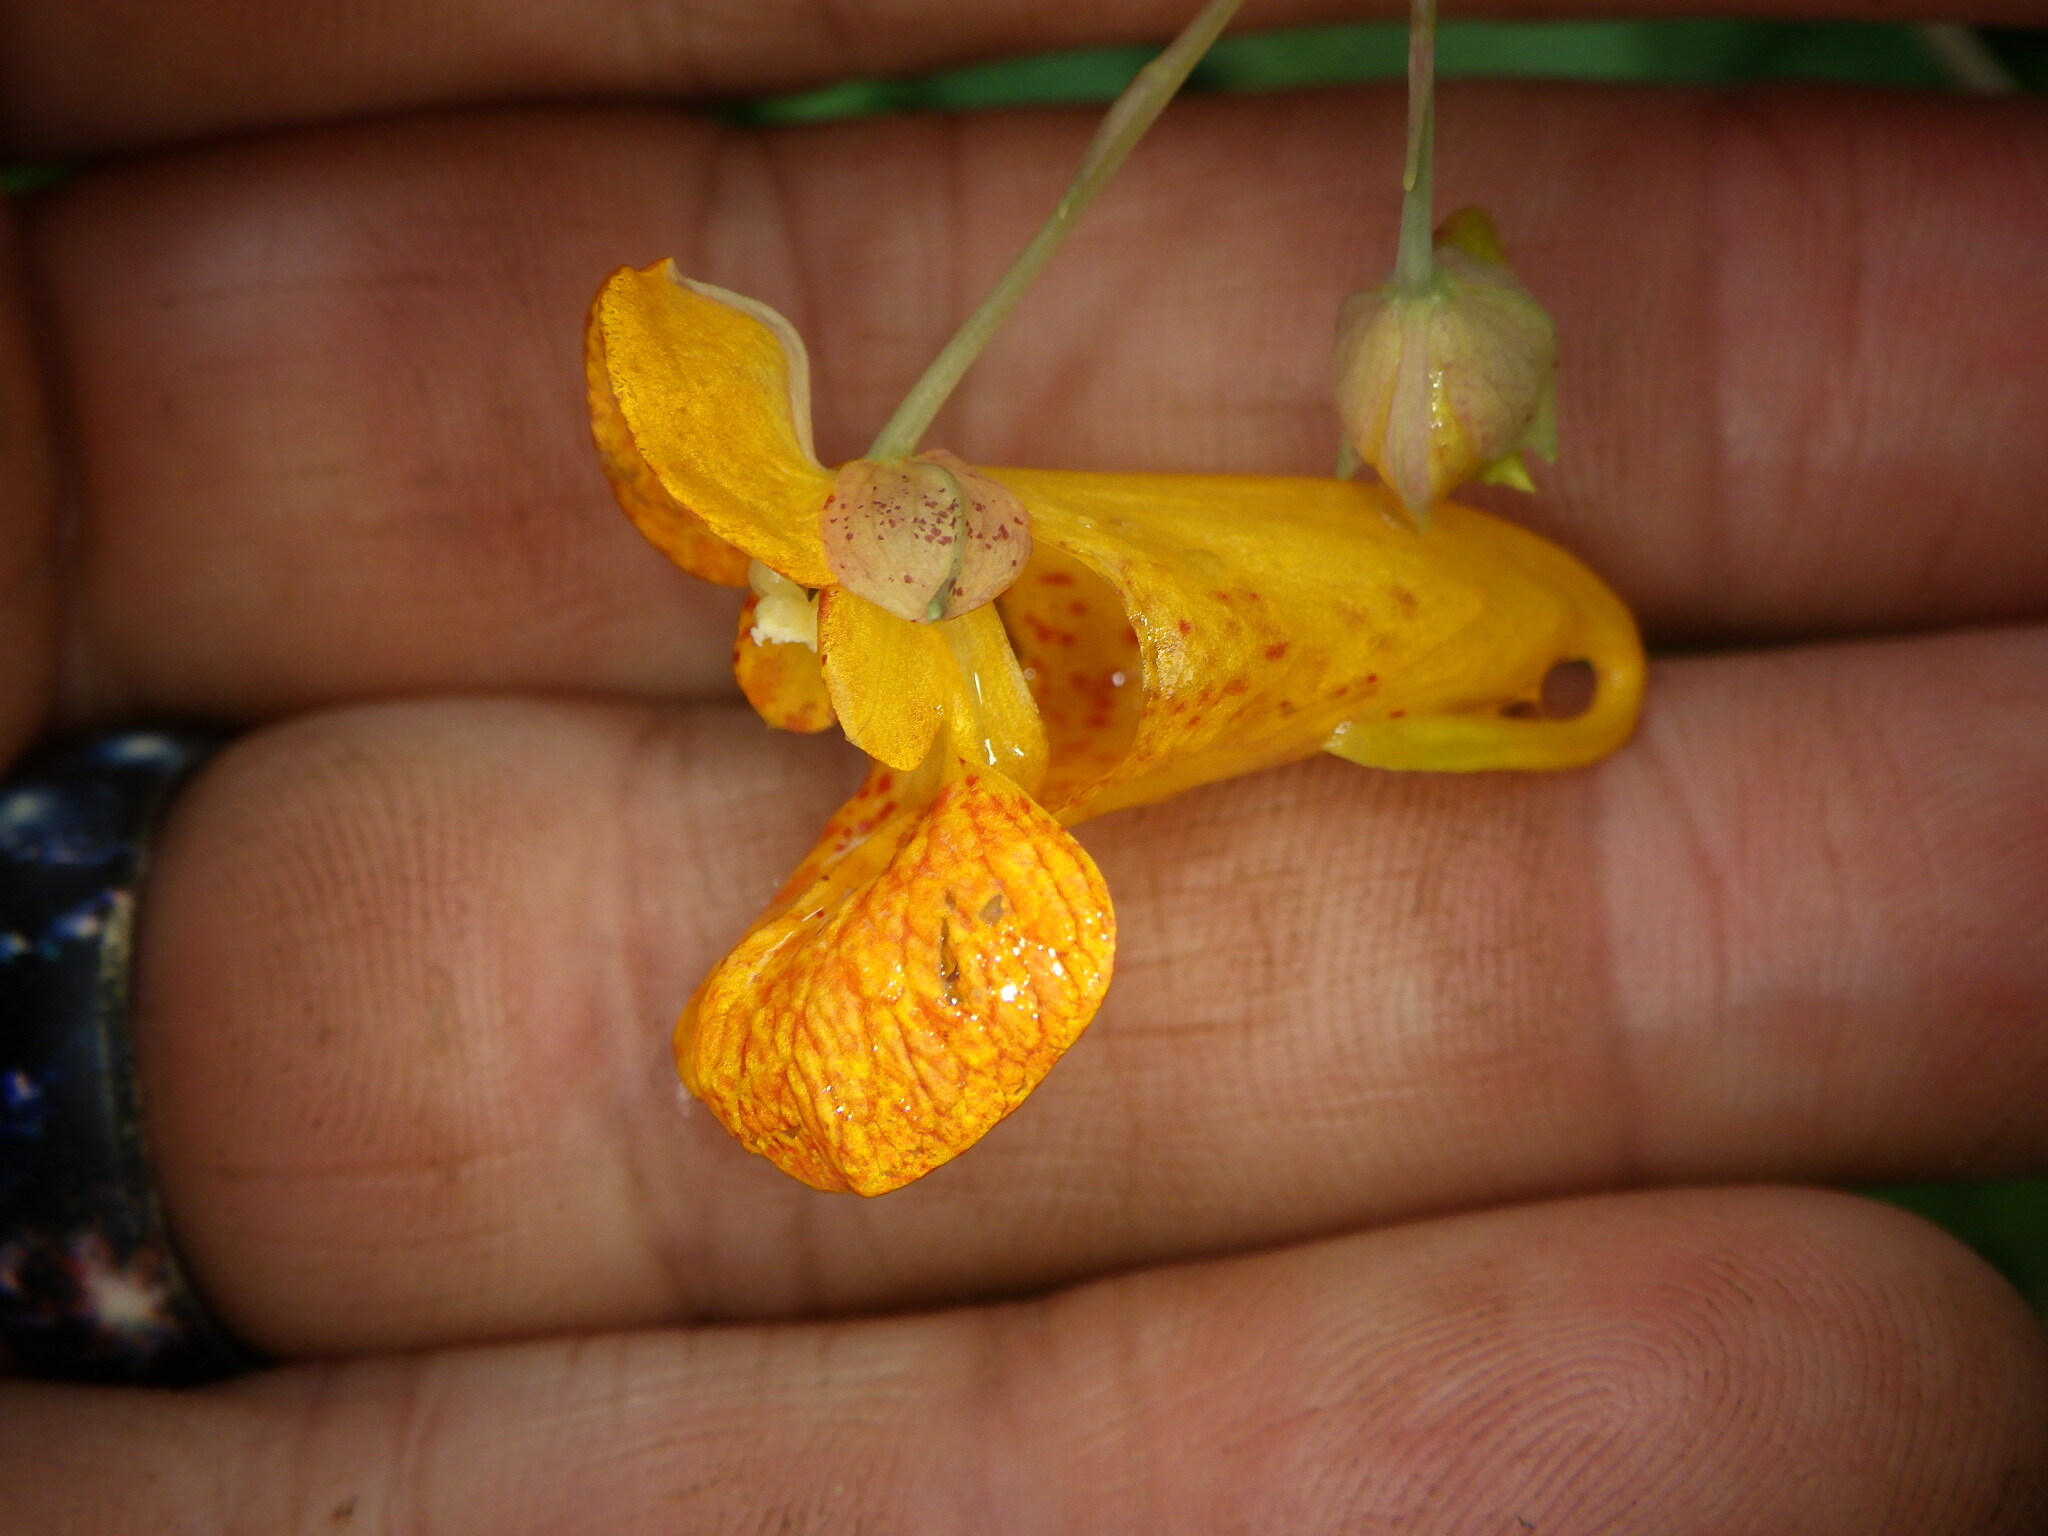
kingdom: Plantae
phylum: Tracheophyta
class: Magnoliopsida
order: Ericales
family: Balsaminaceae
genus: Impatiens
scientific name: Impatiens capensis
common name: Orange balsam
